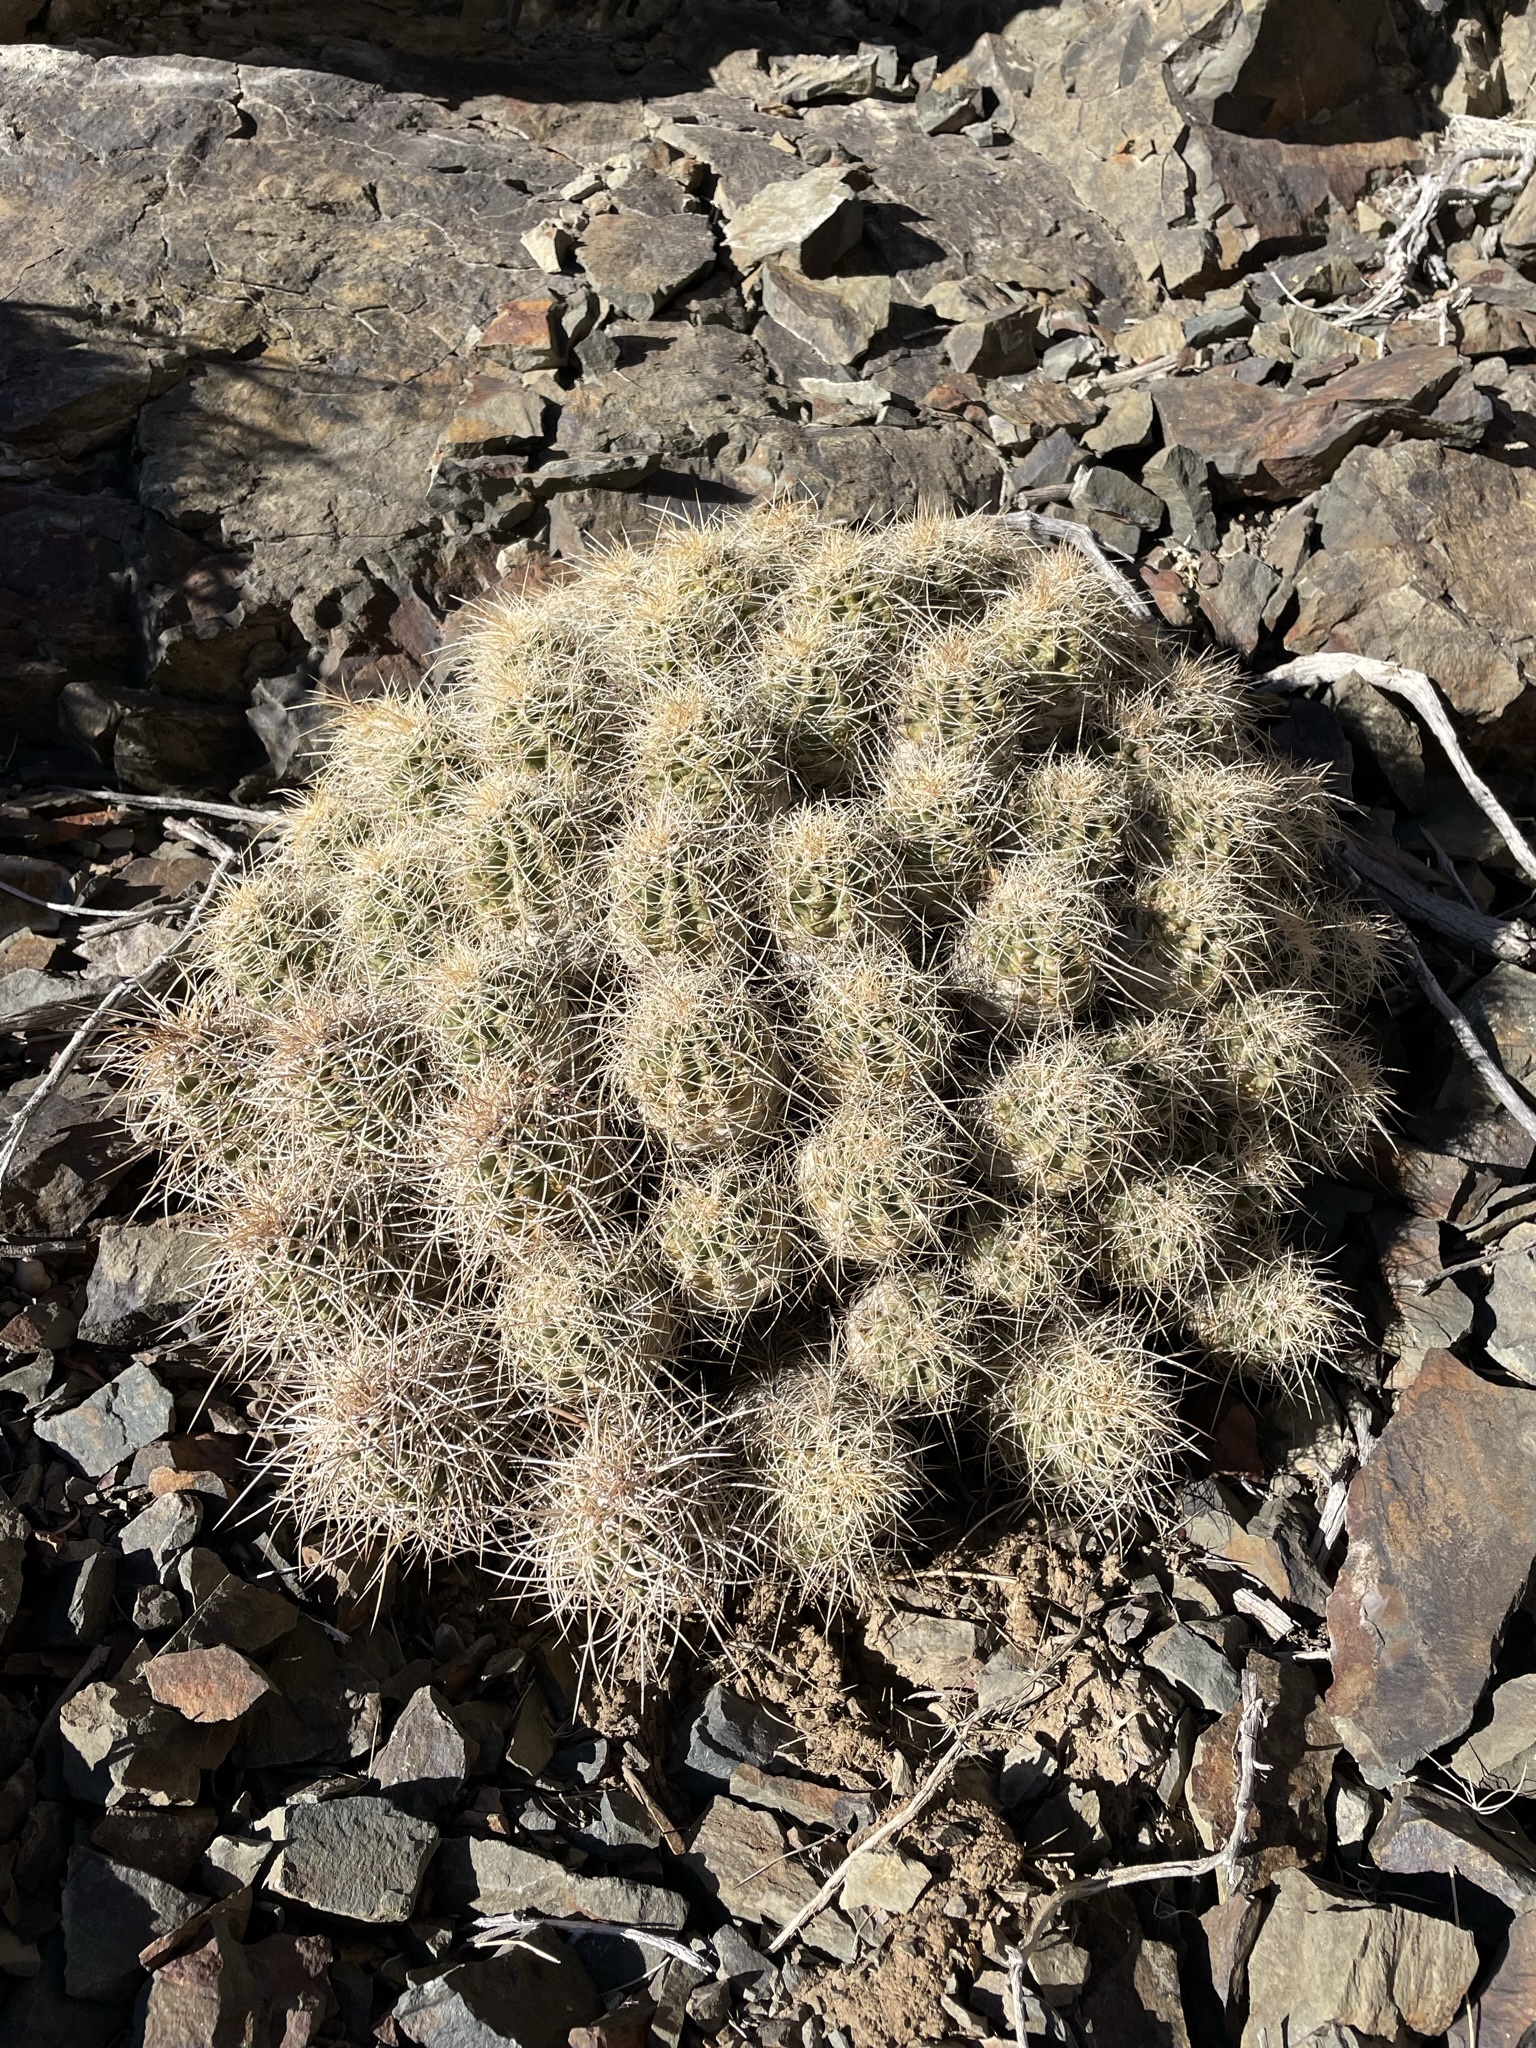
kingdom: Plantae
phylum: Tracheophyta
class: Magnoliopsida
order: Caryophyllales
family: Cactaceae
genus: Echinocereus
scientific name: Echinocereus triglochidiatus
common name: Claretcup hedgehog
